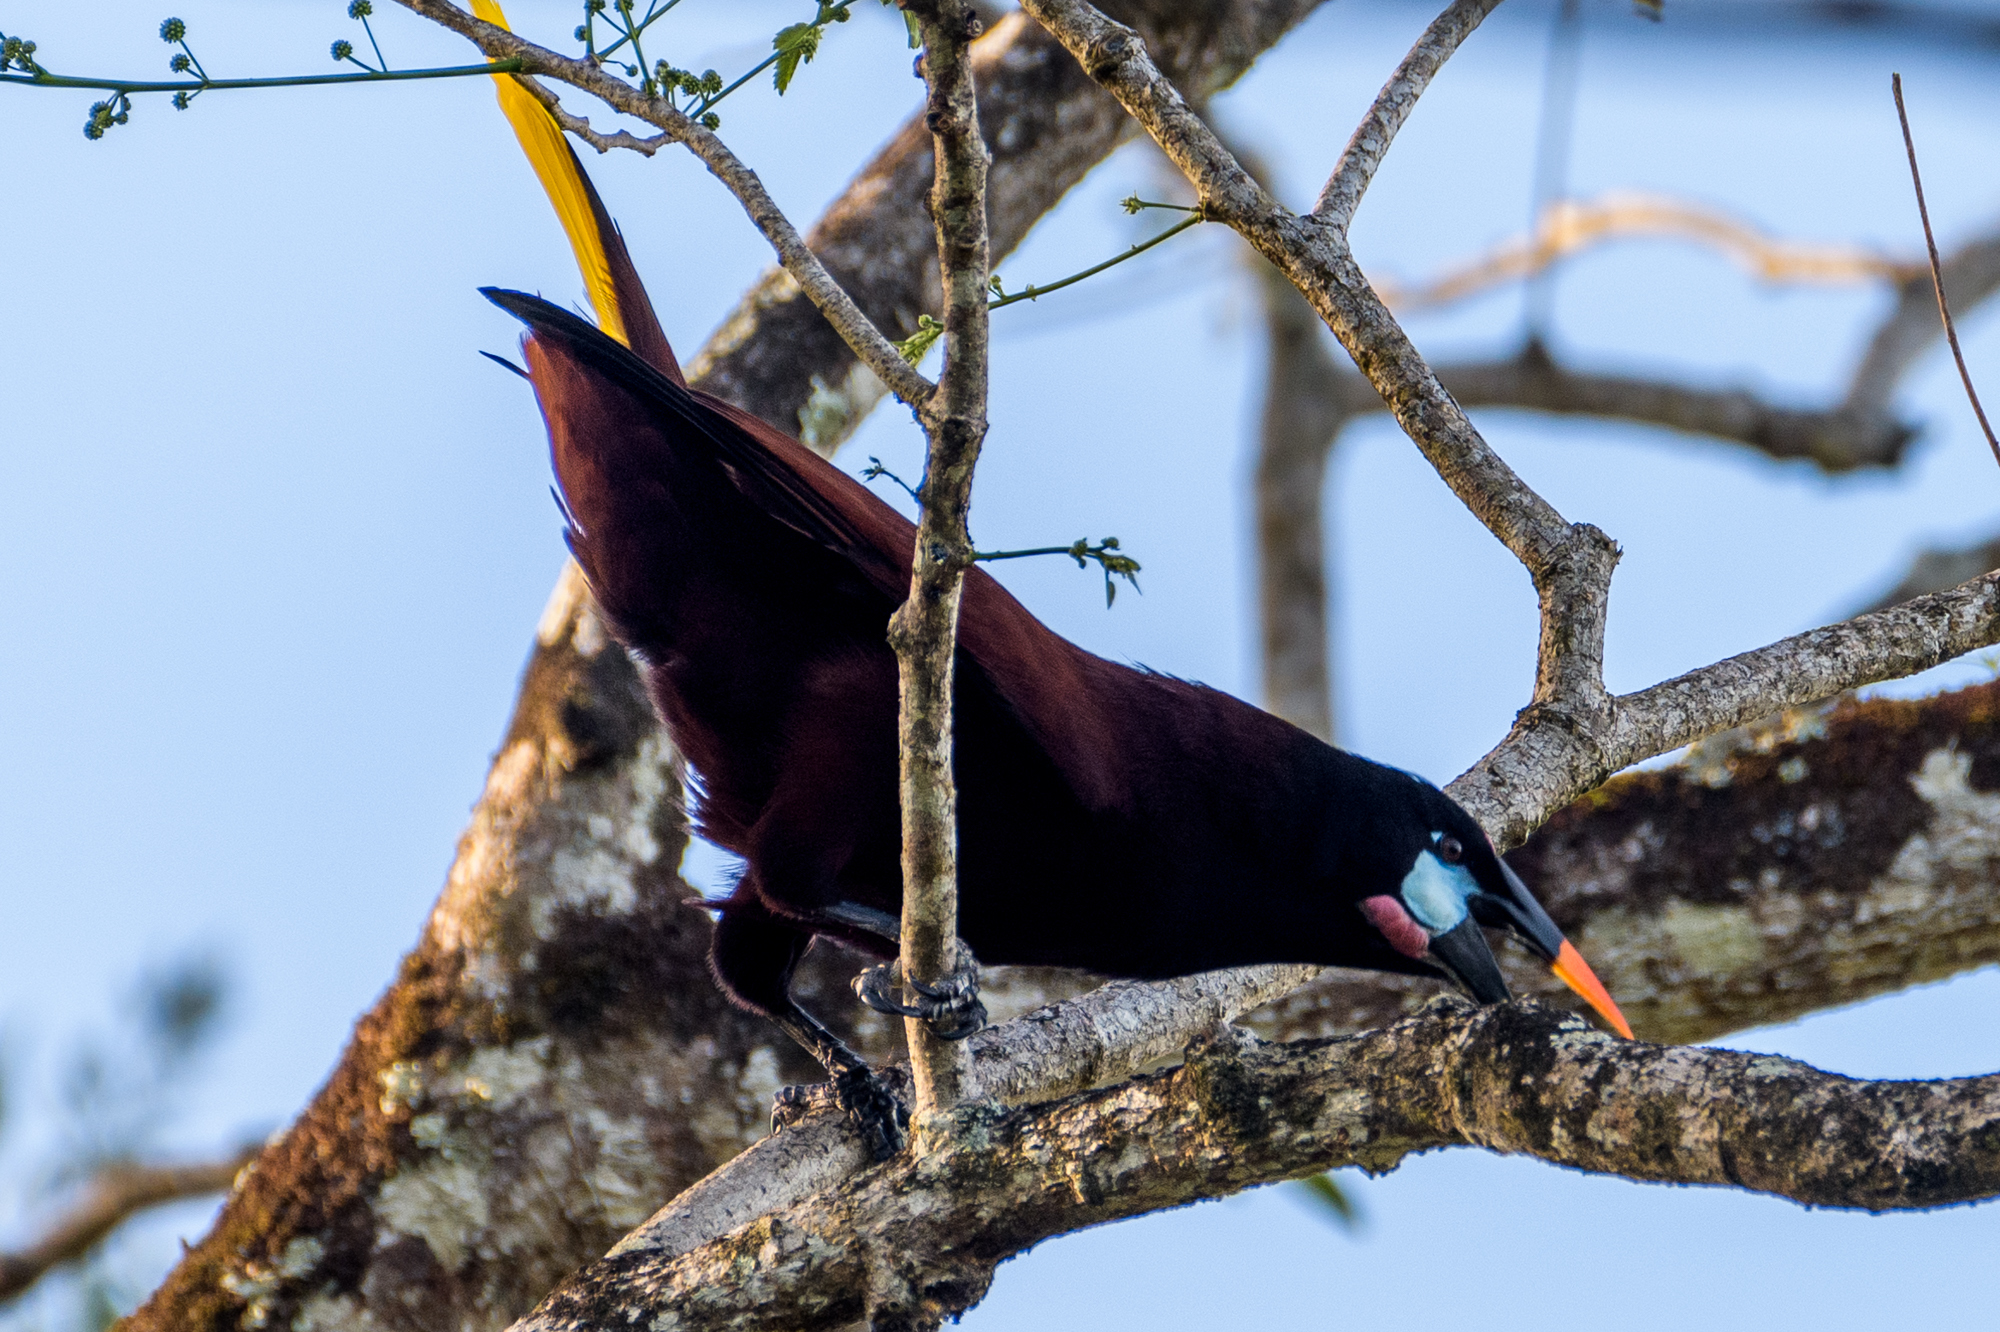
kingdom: Animalia
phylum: Chordata
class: Aves
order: Passeriformes
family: Icteridae
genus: Psarocolius
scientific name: Psarocolius montezuma
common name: Montezuma oropendola
